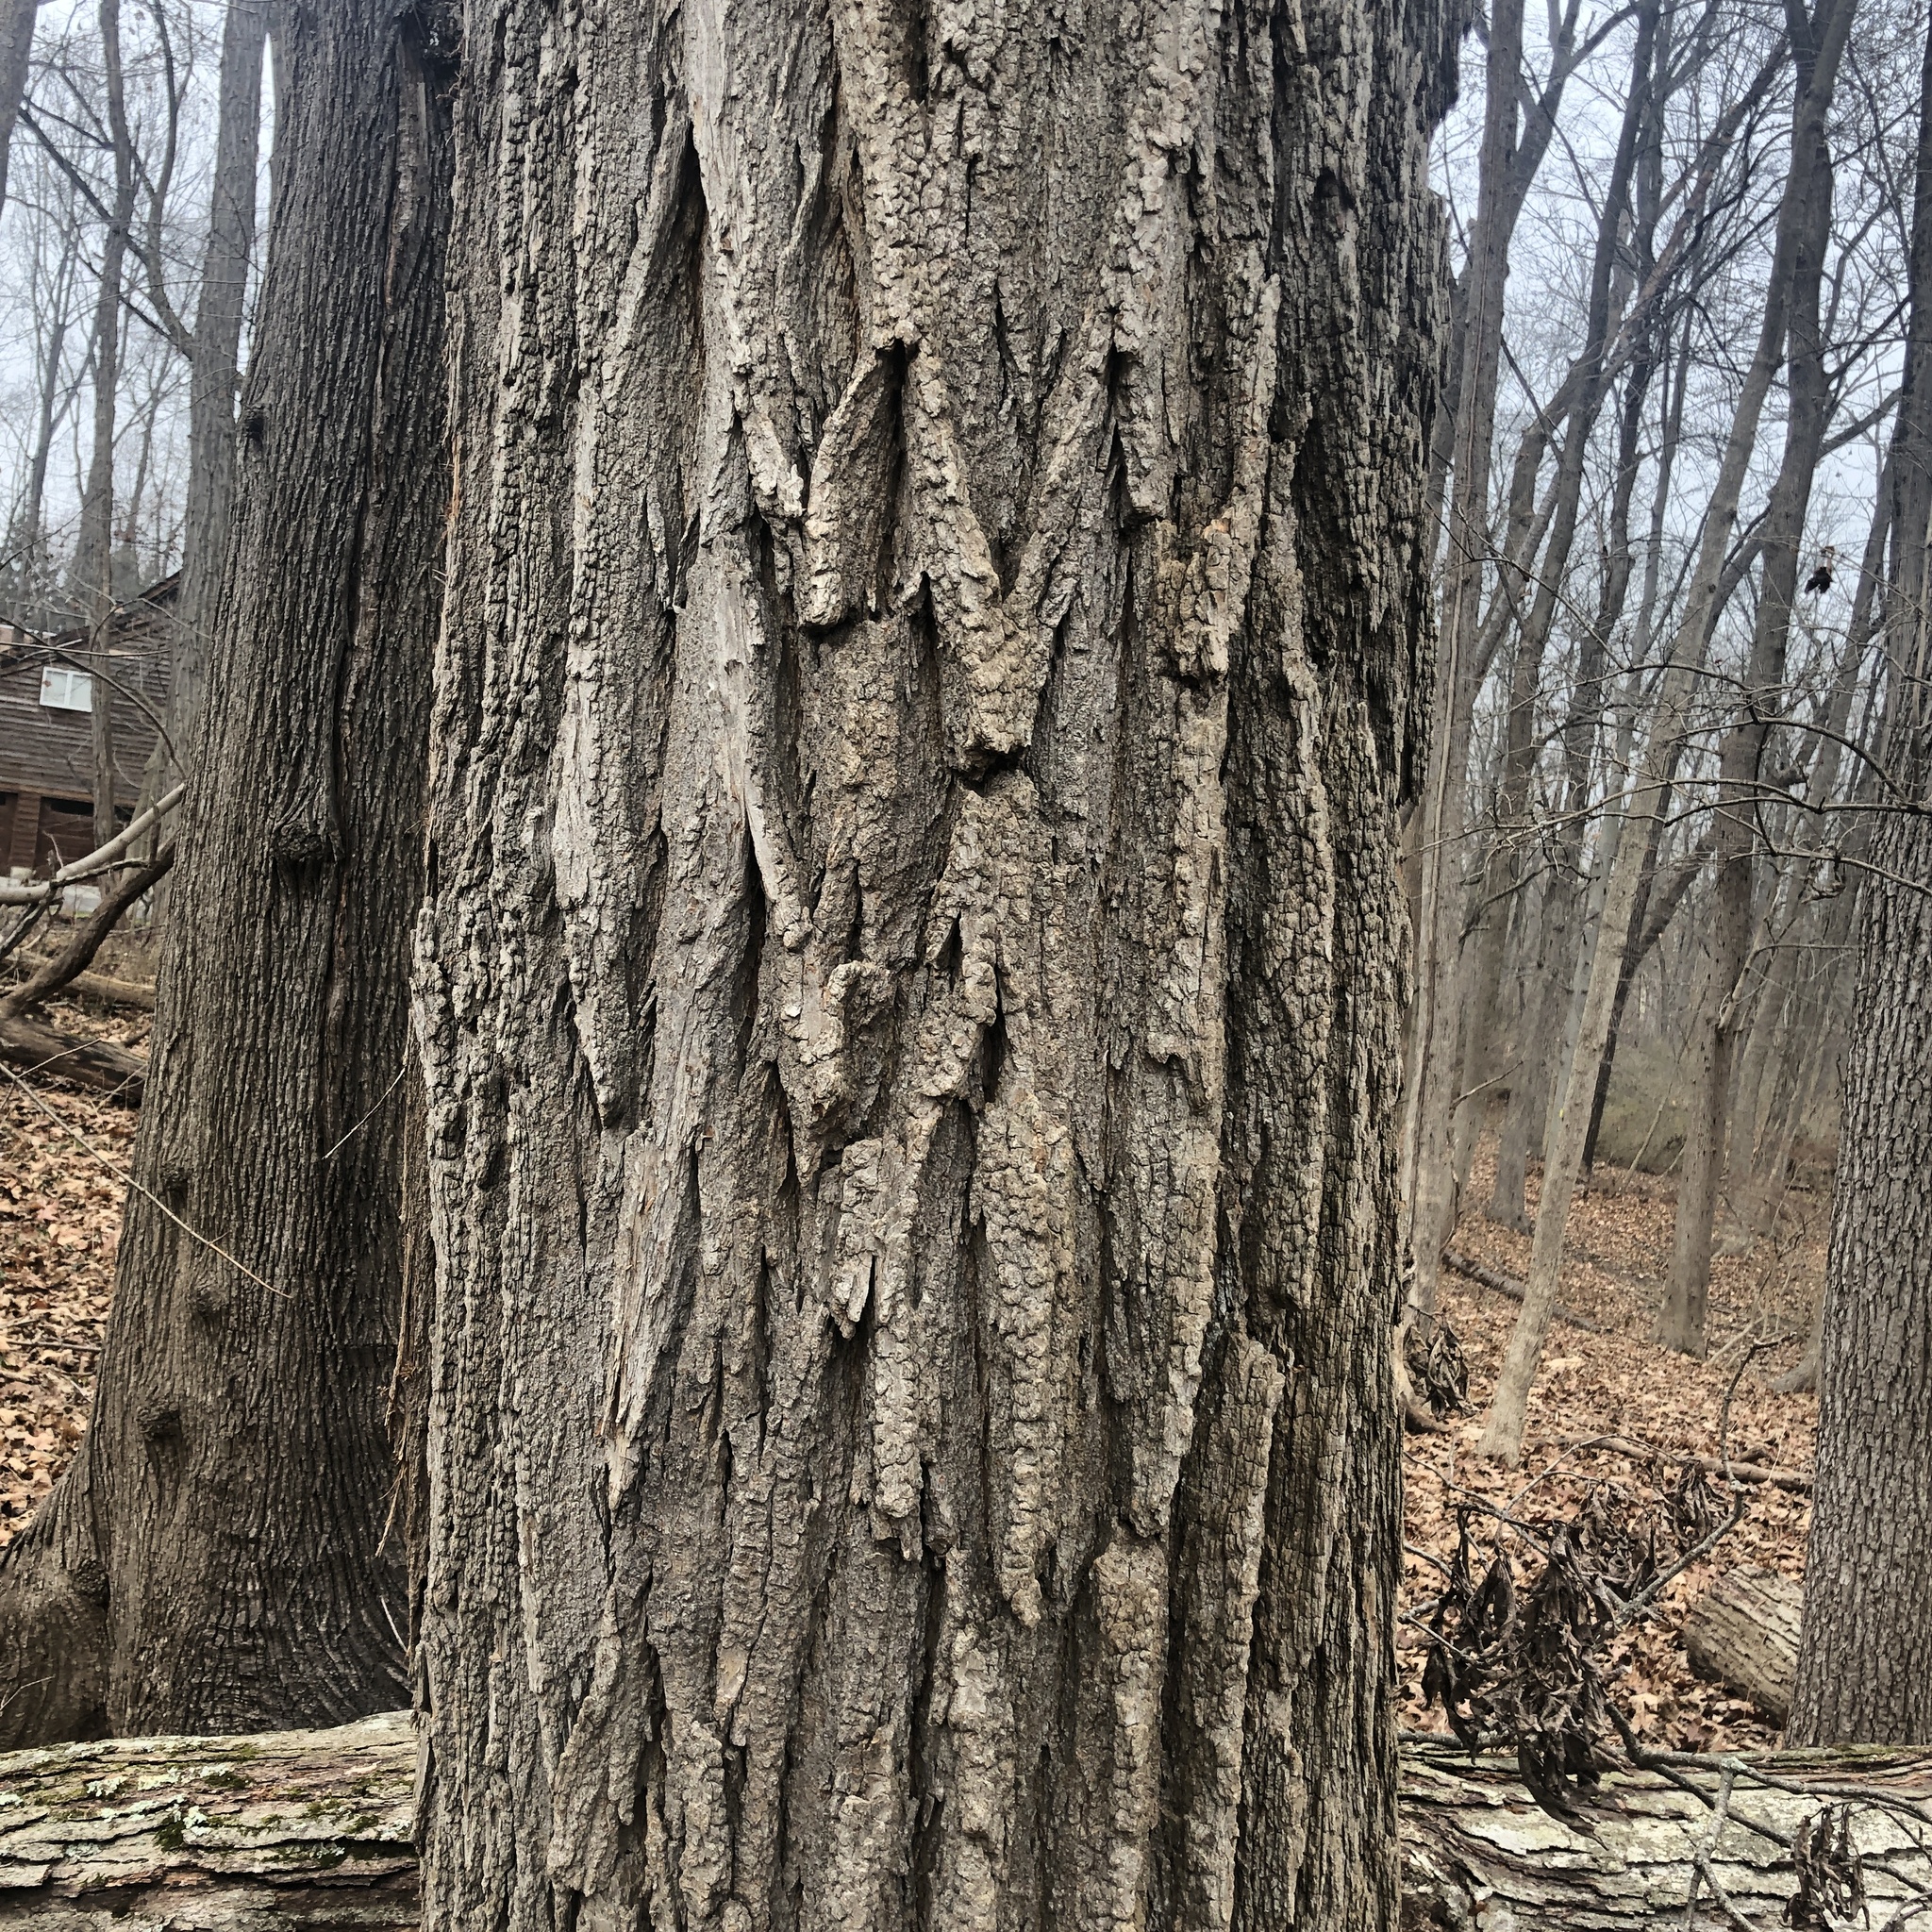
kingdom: Plantae
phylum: Tracheophyta
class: Magnoliopsida
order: Fabales
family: Fabaceae
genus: Robinia
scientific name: Robinia pseudoacacia
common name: Black locust
